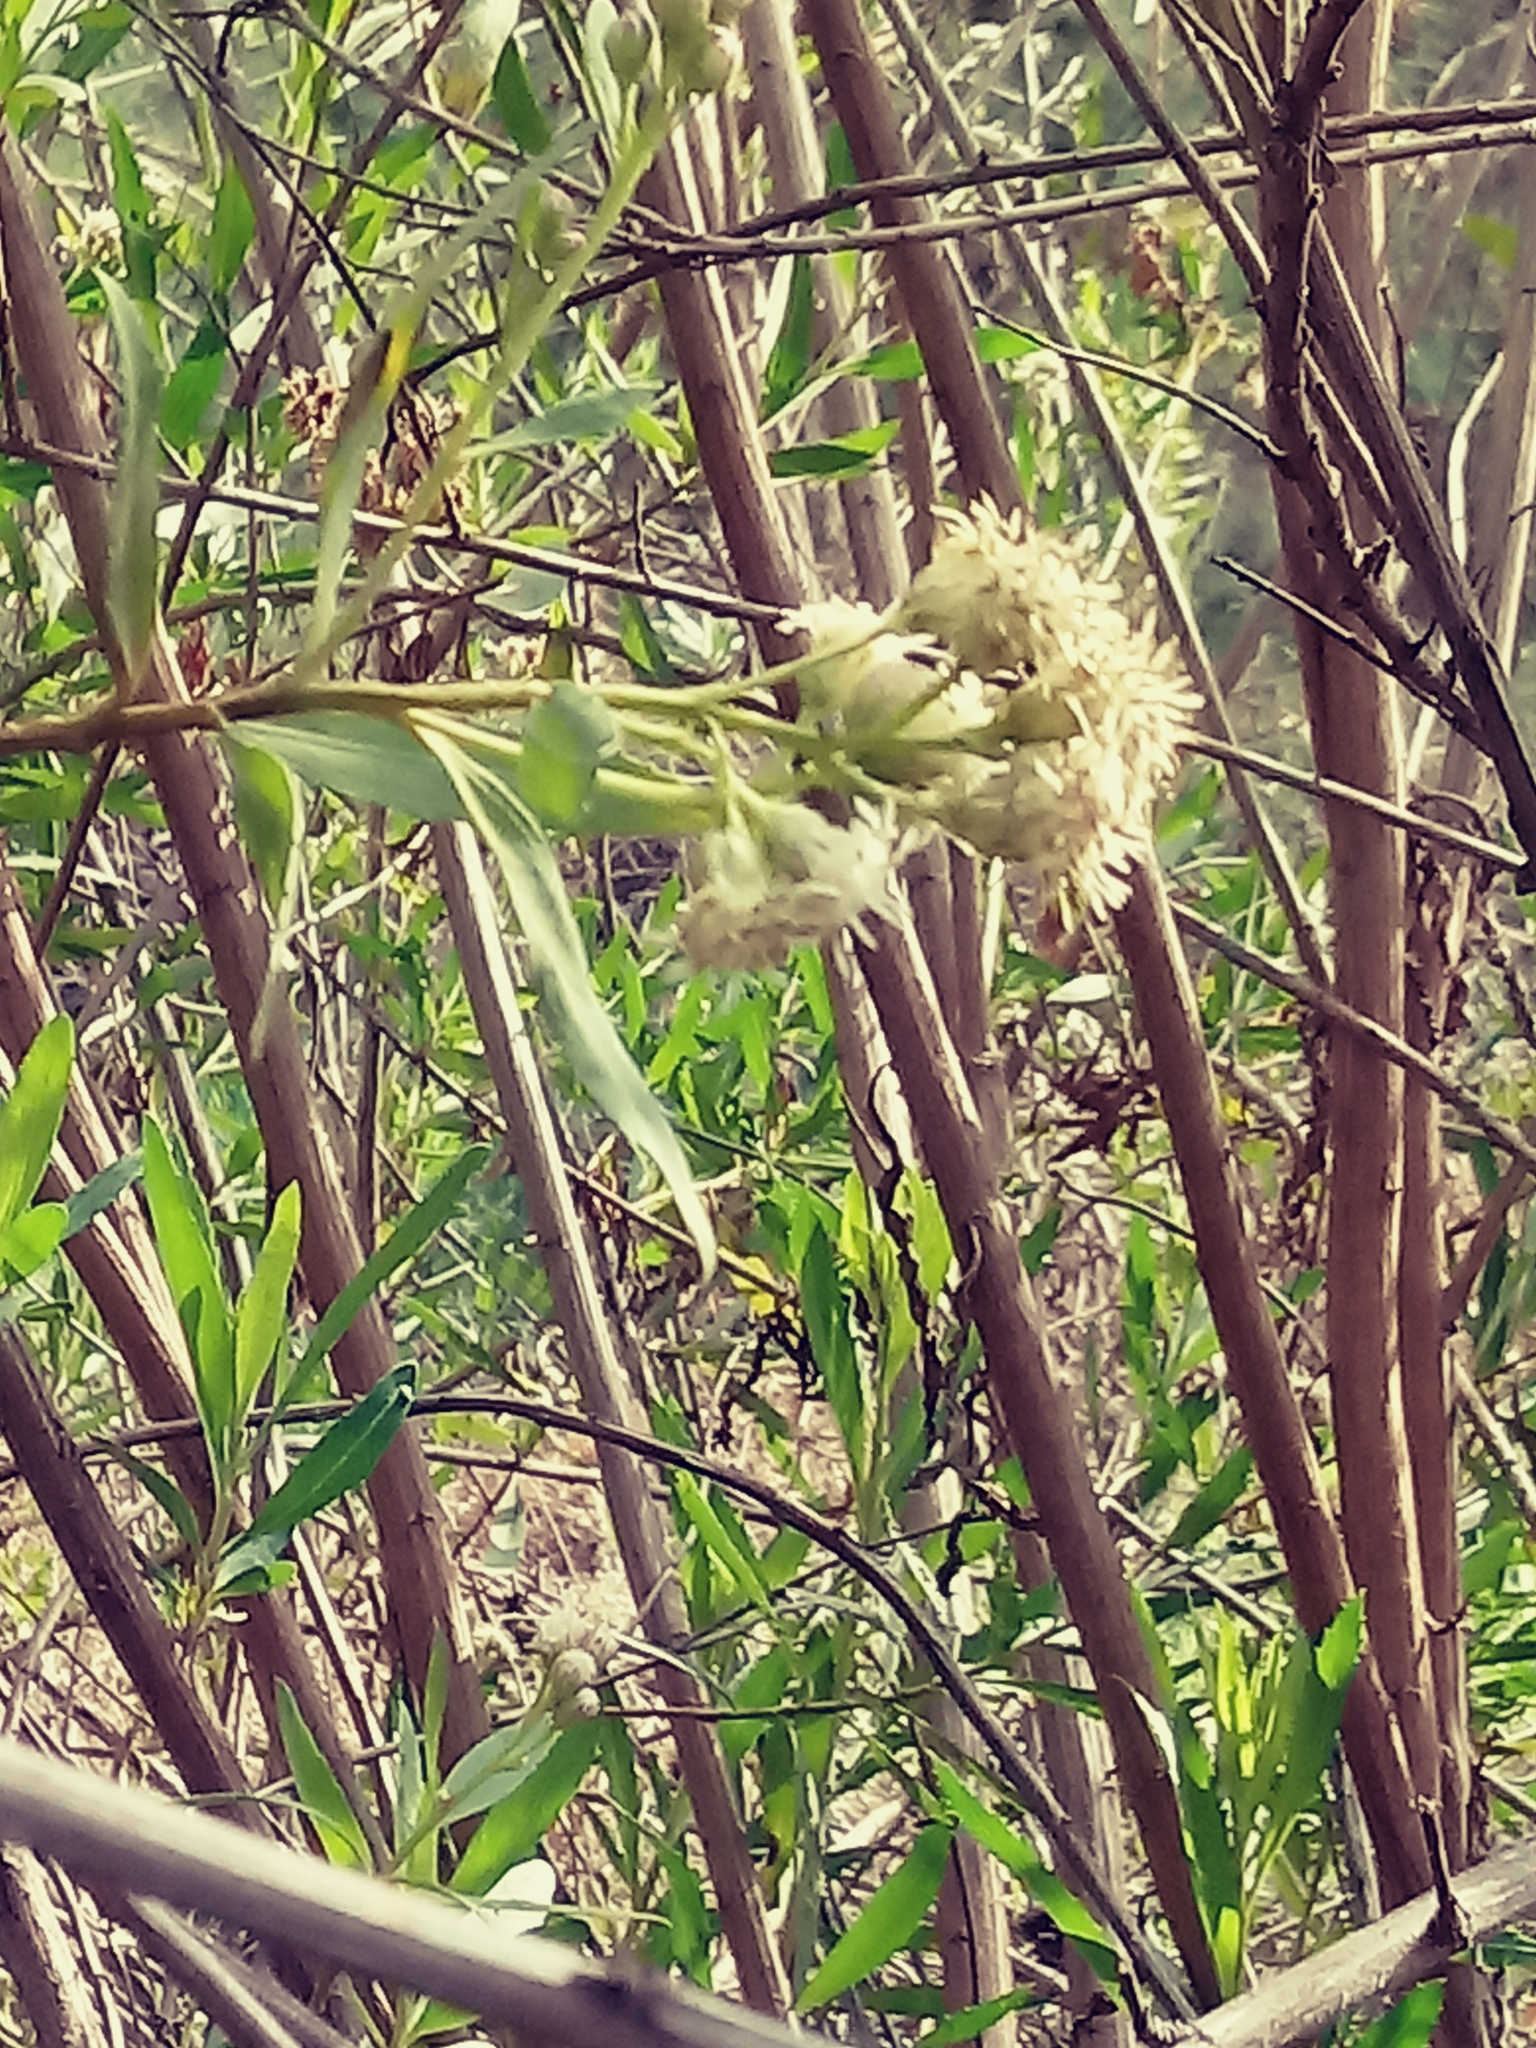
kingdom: Plantae
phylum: Tracheophyta
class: Magnoliopsida
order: Asterales
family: Asteraceae
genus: Baccharis
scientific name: Baccharis salicifolia
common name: Sticky baccharis
